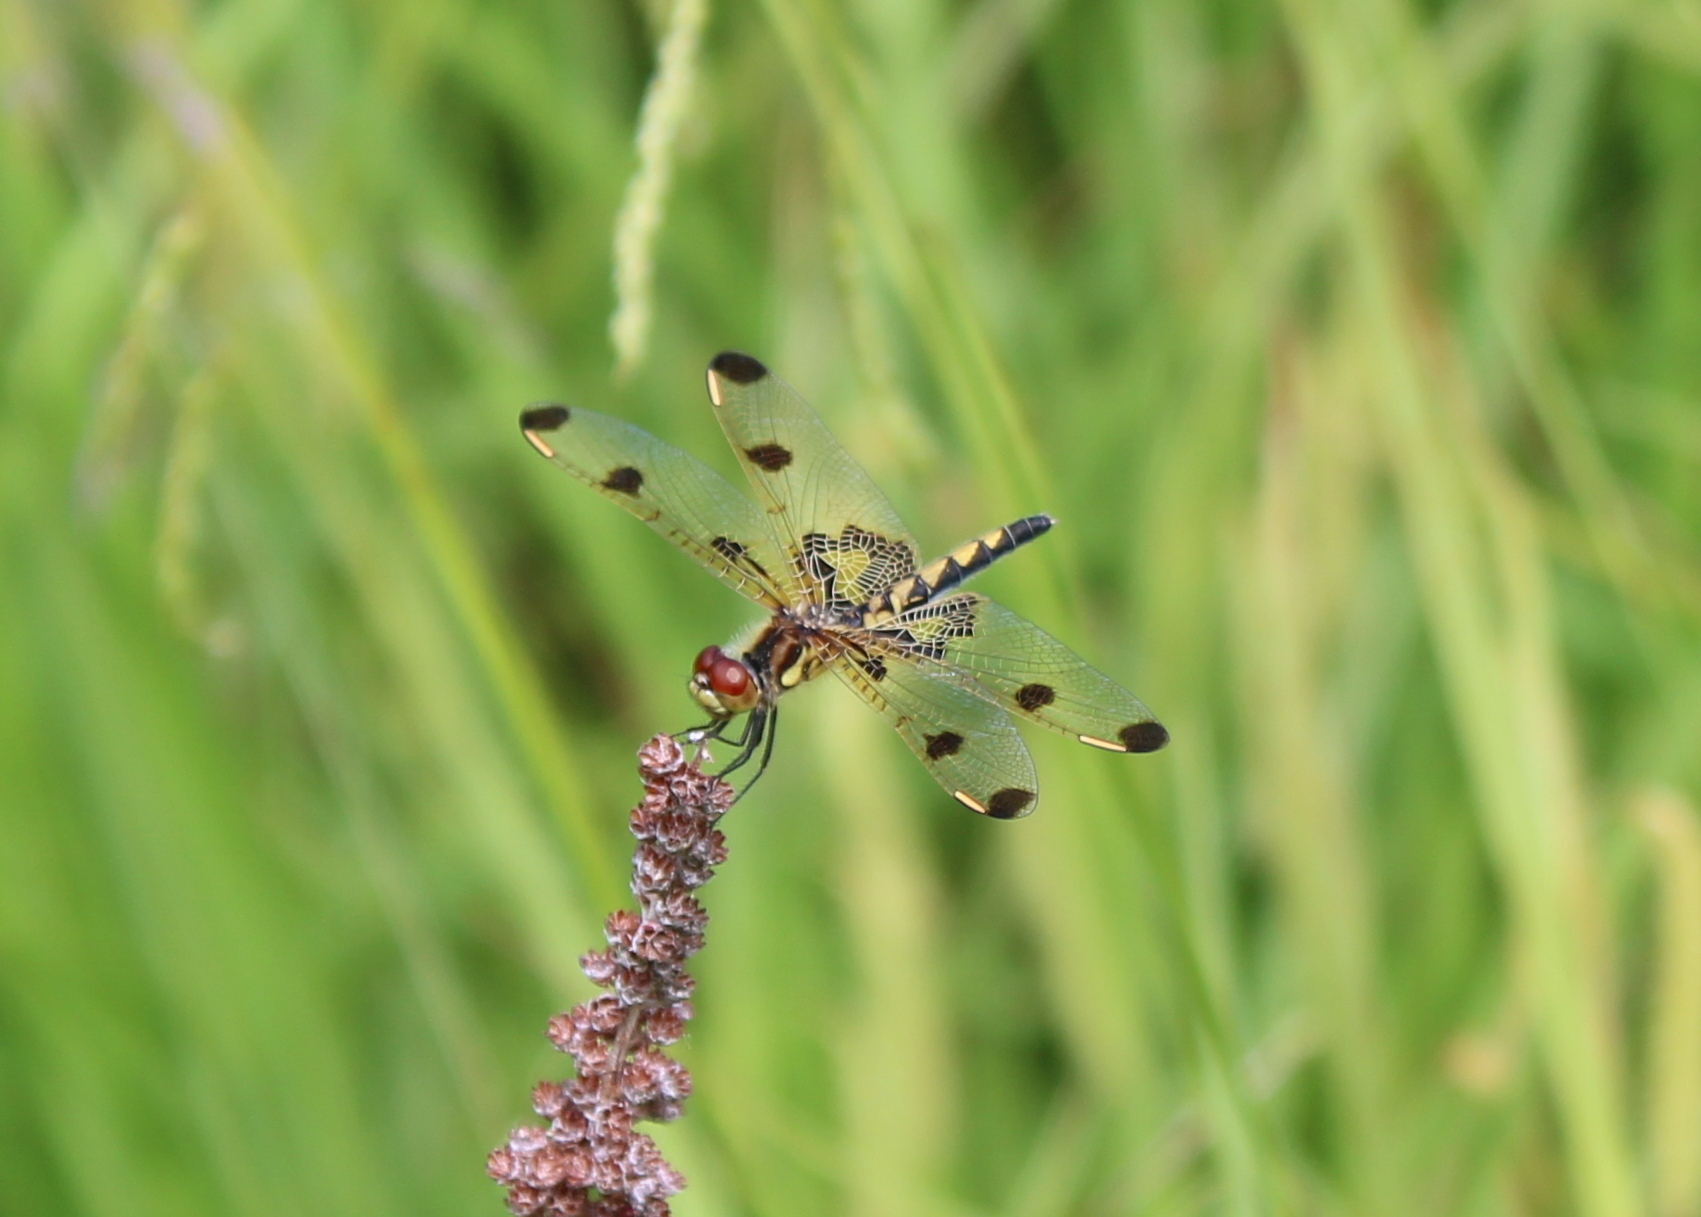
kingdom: Animalia
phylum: Arthropoda
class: Insecta
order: Odonata
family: Libellulidae
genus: Celithemis
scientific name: Celithemis elisa
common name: Calico pennant
